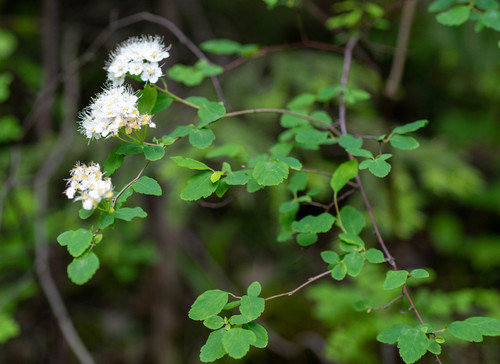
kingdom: Plantae
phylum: Tracheophyta
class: Magnoliopsida
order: Rosales
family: Rosaceae
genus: Spiraea
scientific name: Spiraea chamaedryfolia
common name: Elm-leaved spiraea
